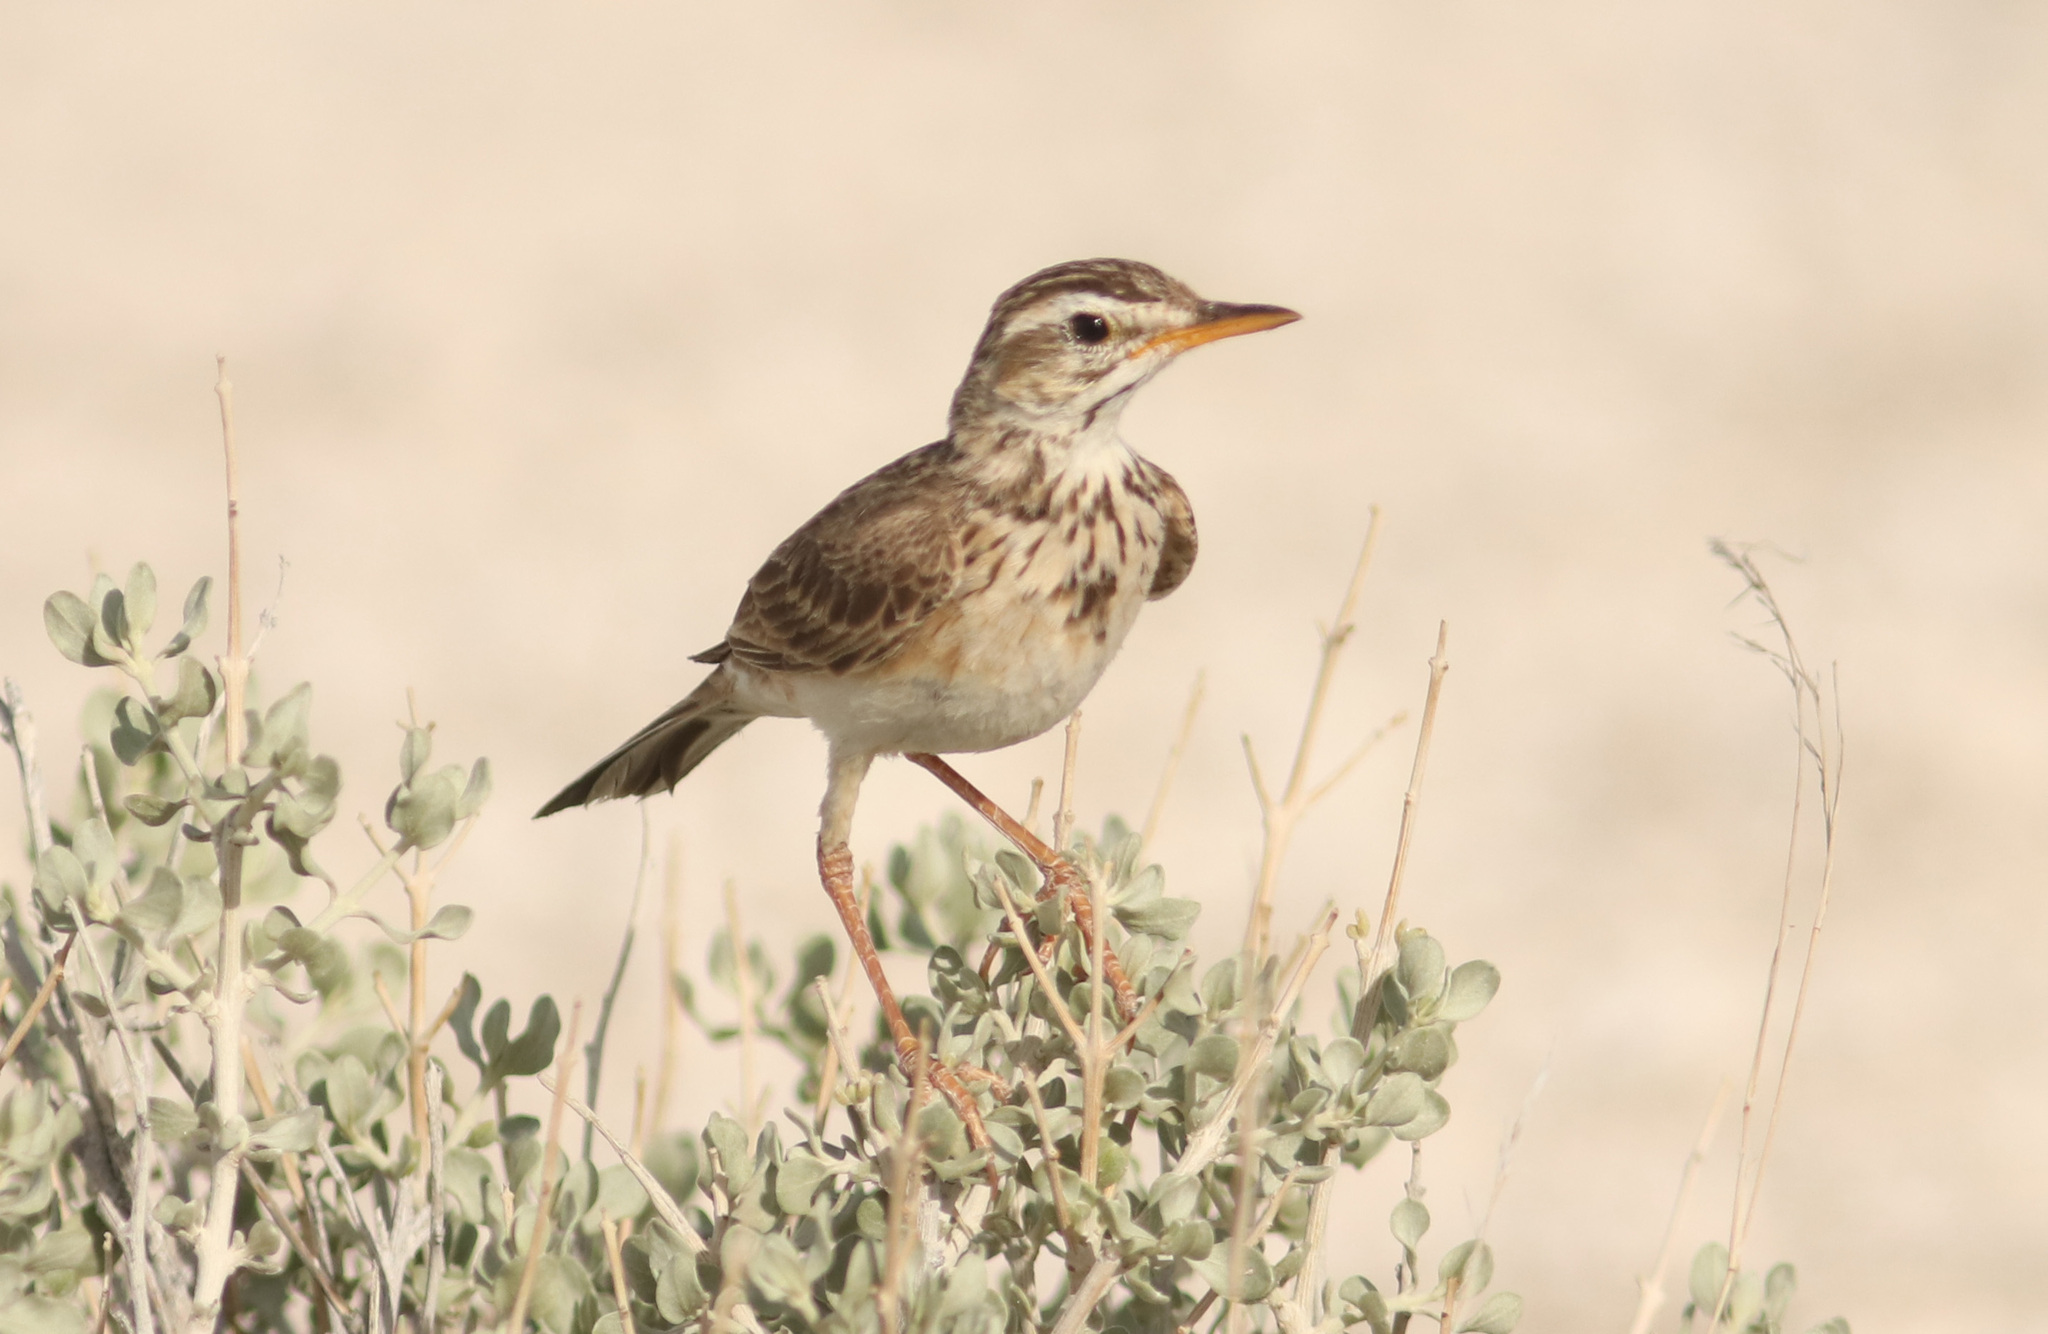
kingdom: Animalia
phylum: Chordata
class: Aves
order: Passeriformes
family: Motacillidae
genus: Anthus
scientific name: Anthus cinnamomeus
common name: African pipit
